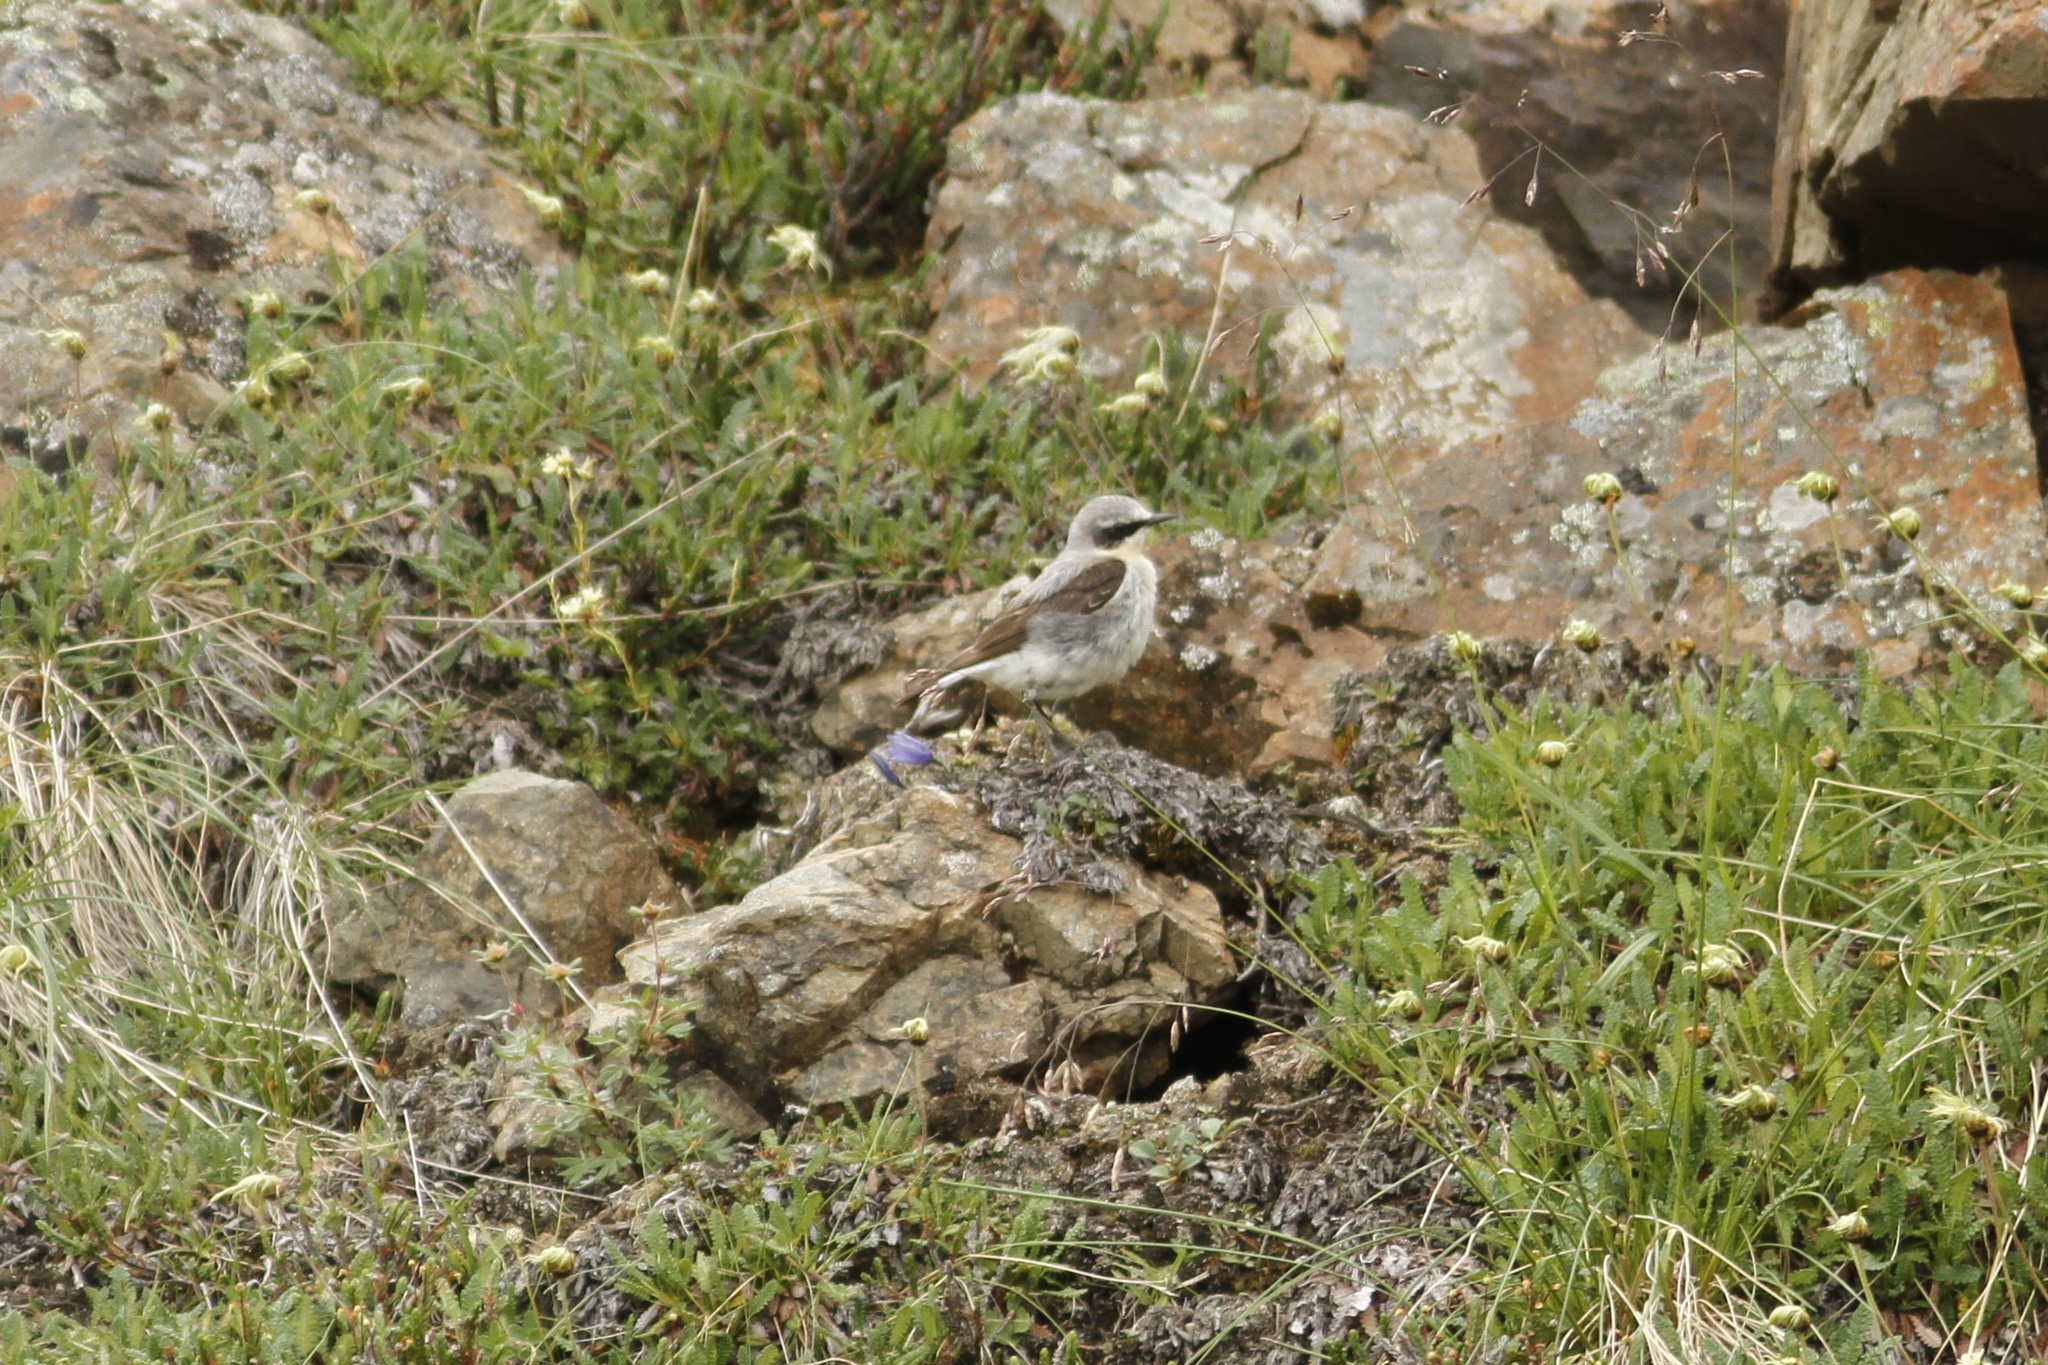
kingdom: Animalia
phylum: Chordata
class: Aves
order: Passeriformes
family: Muscicapidae
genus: Oenanthe
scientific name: Oenanthe oenanthe
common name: Northern wheatear
